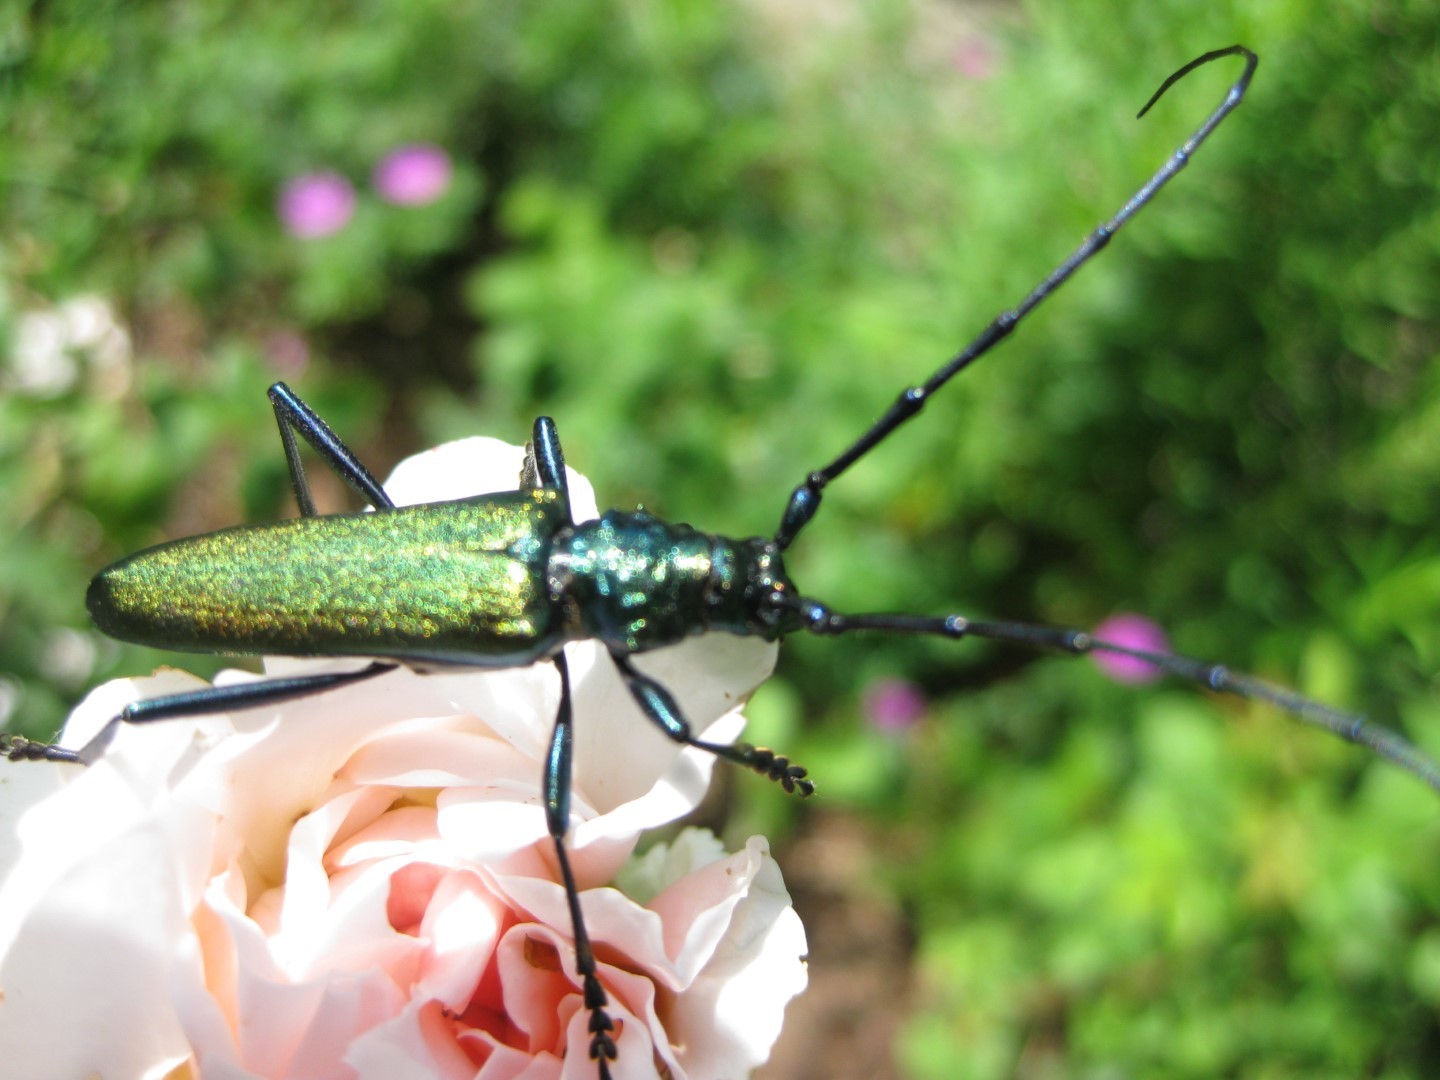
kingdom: Animalia
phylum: Arthropoda
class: Insecta
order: Coleoptera
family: Cerambycidae
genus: Aromia
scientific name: Aromia moschata
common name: Musk beetle
